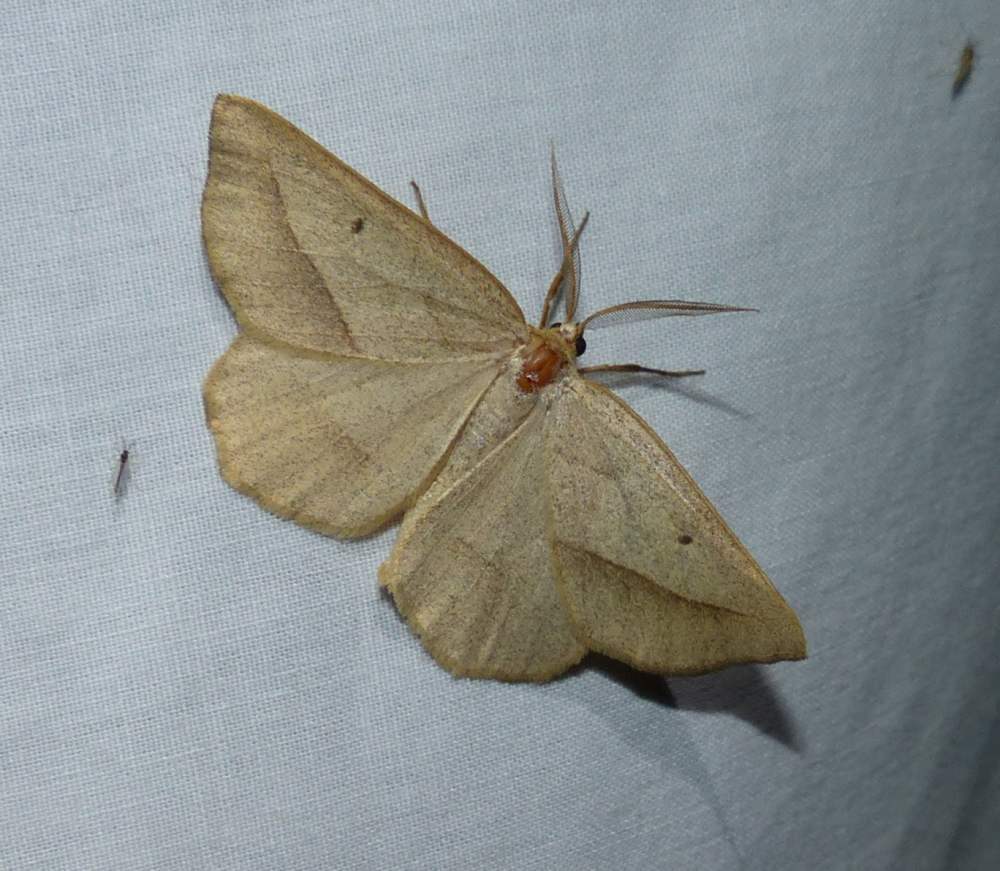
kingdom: Animalia
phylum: Arthropoda
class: Insecta
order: Lepidoptera
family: Geometridae
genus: Euchlaena
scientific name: Euchlaena irraria
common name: Least-marked euchlaena
